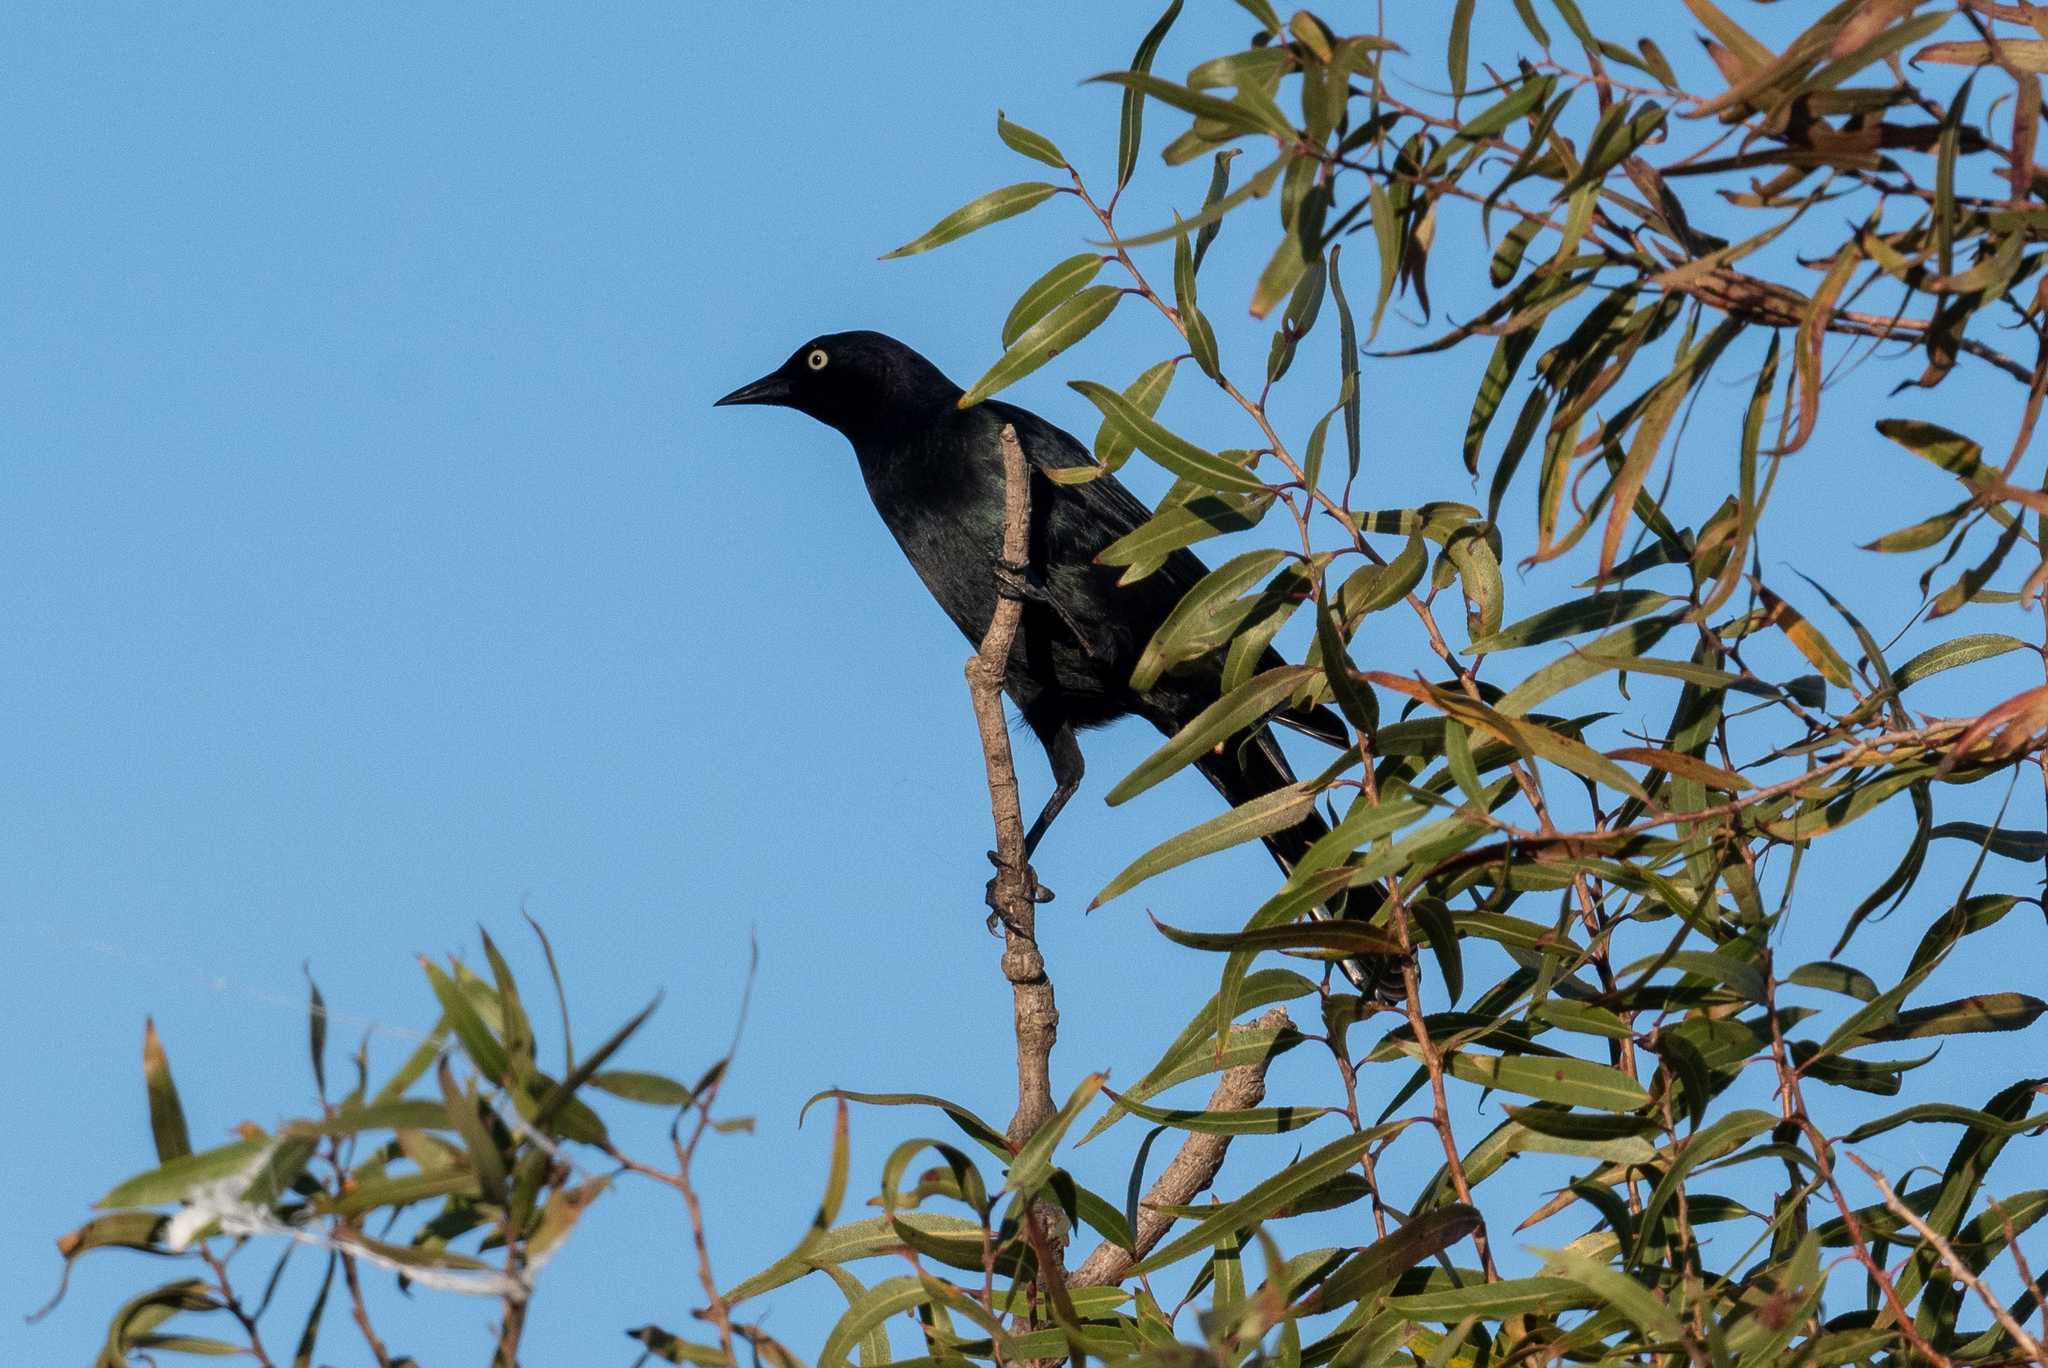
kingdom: Animalia
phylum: Chordata
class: Aves
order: Passeriformes
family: Icteridae
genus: Quiscalus
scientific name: Quiscalus mexicanus
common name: Great-tailed grackle
